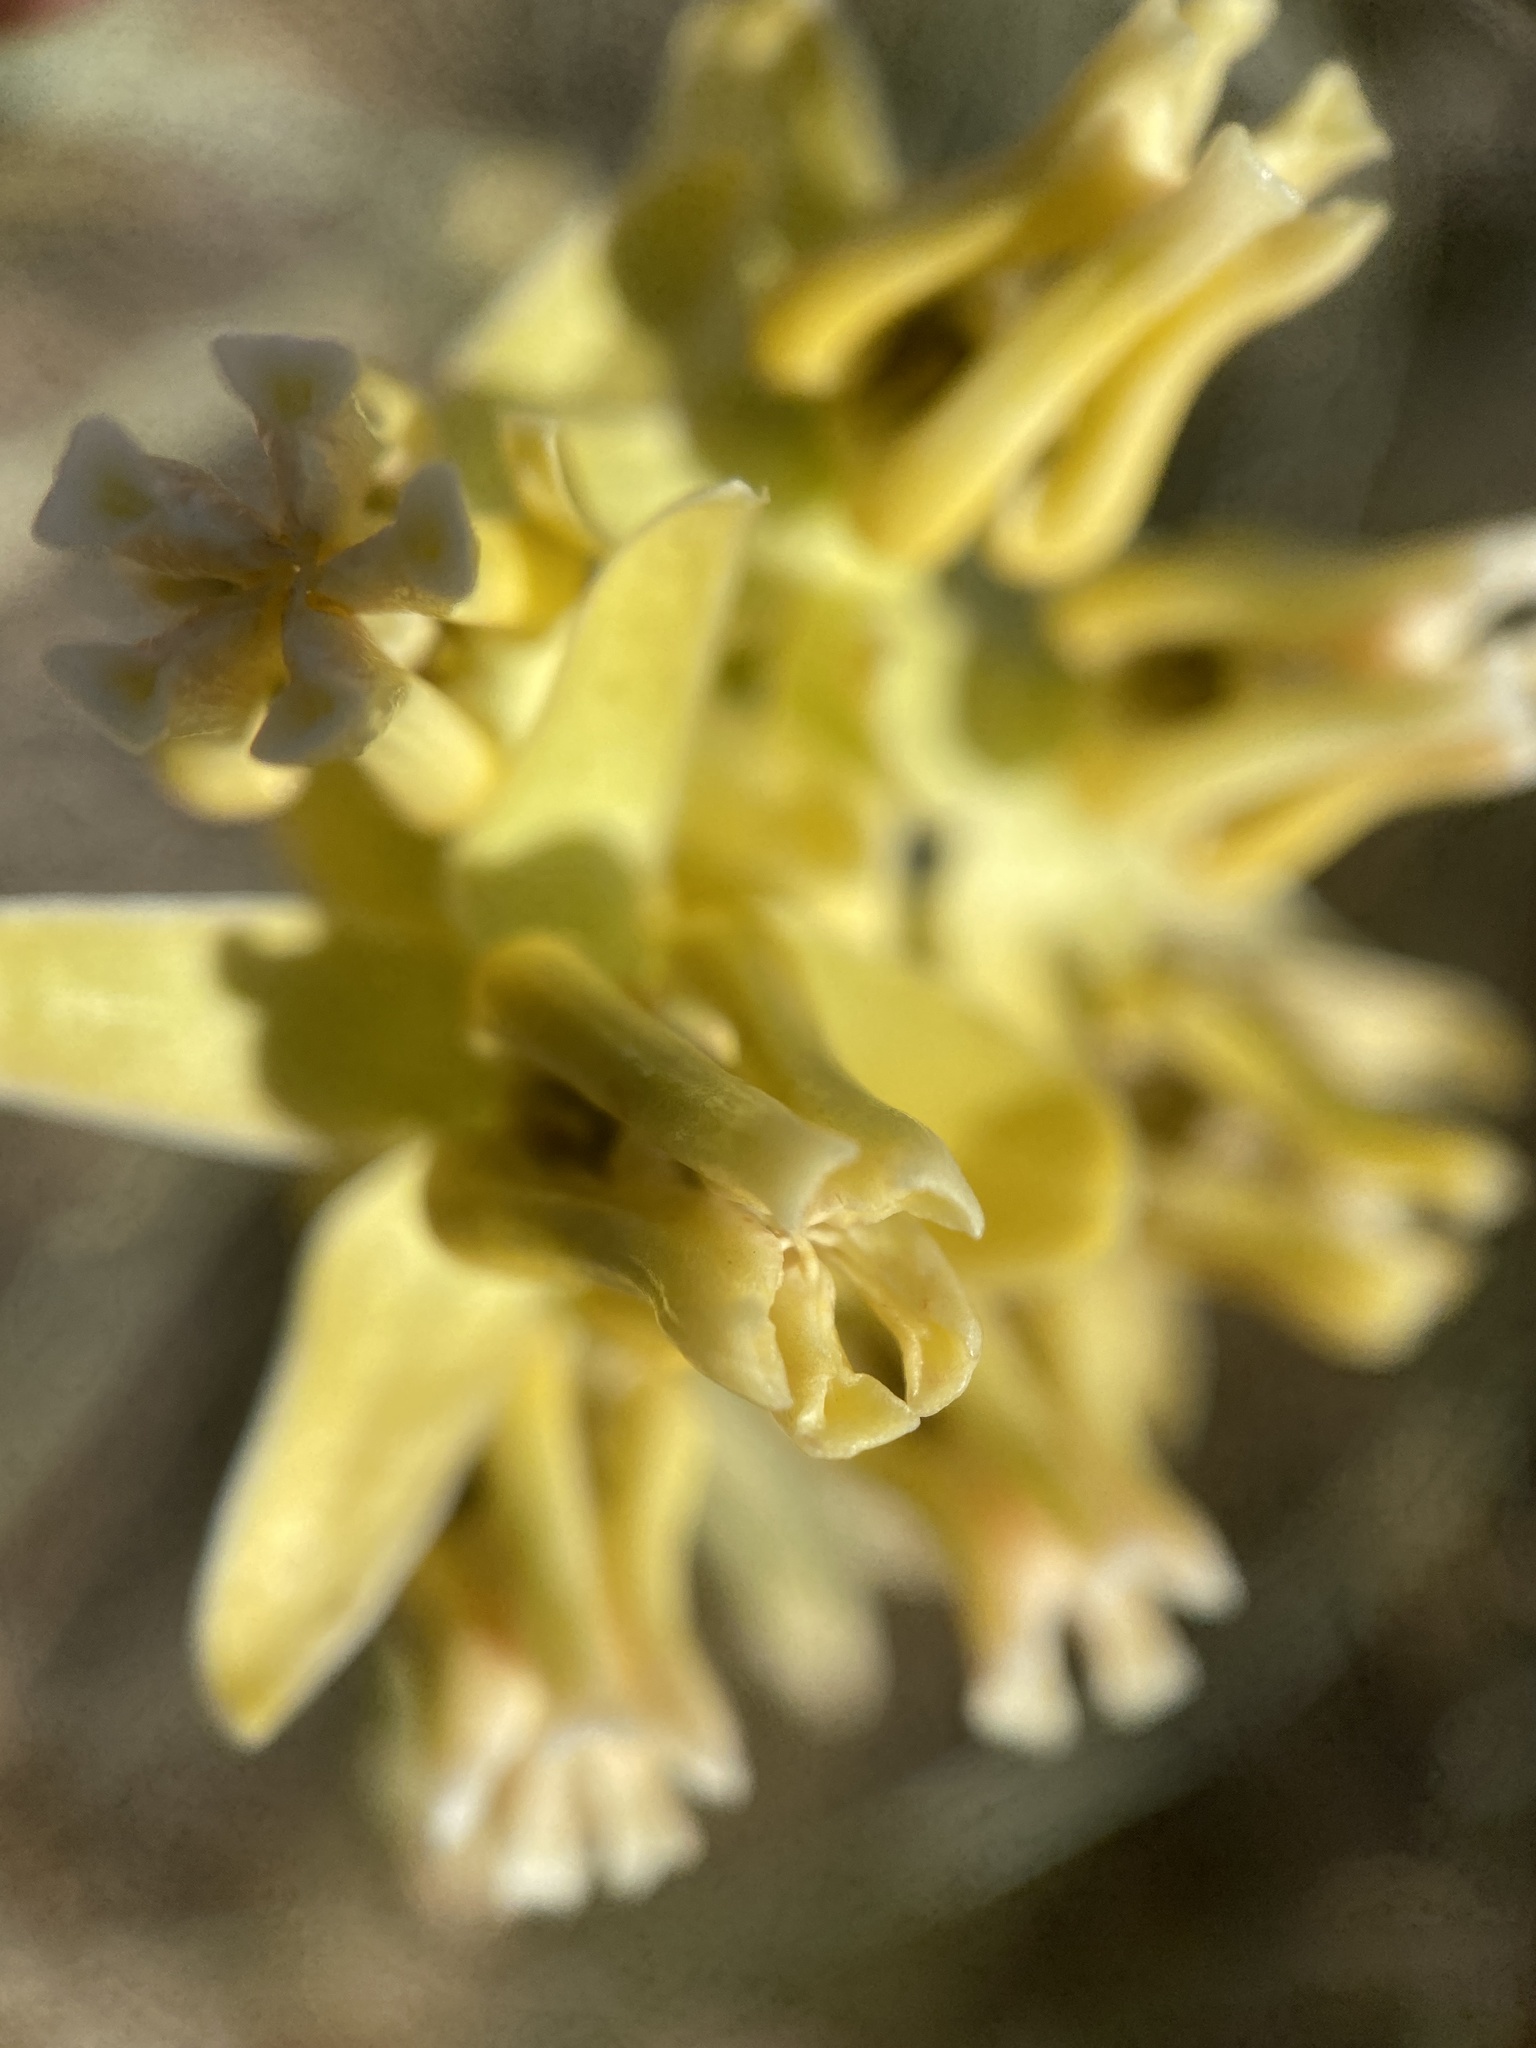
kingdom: Plantae
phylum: Tracheophyta
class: Magnoliopsida
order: Gentianales
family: Apocynaceae
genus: Asclepias
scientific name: Asclepias subulata
